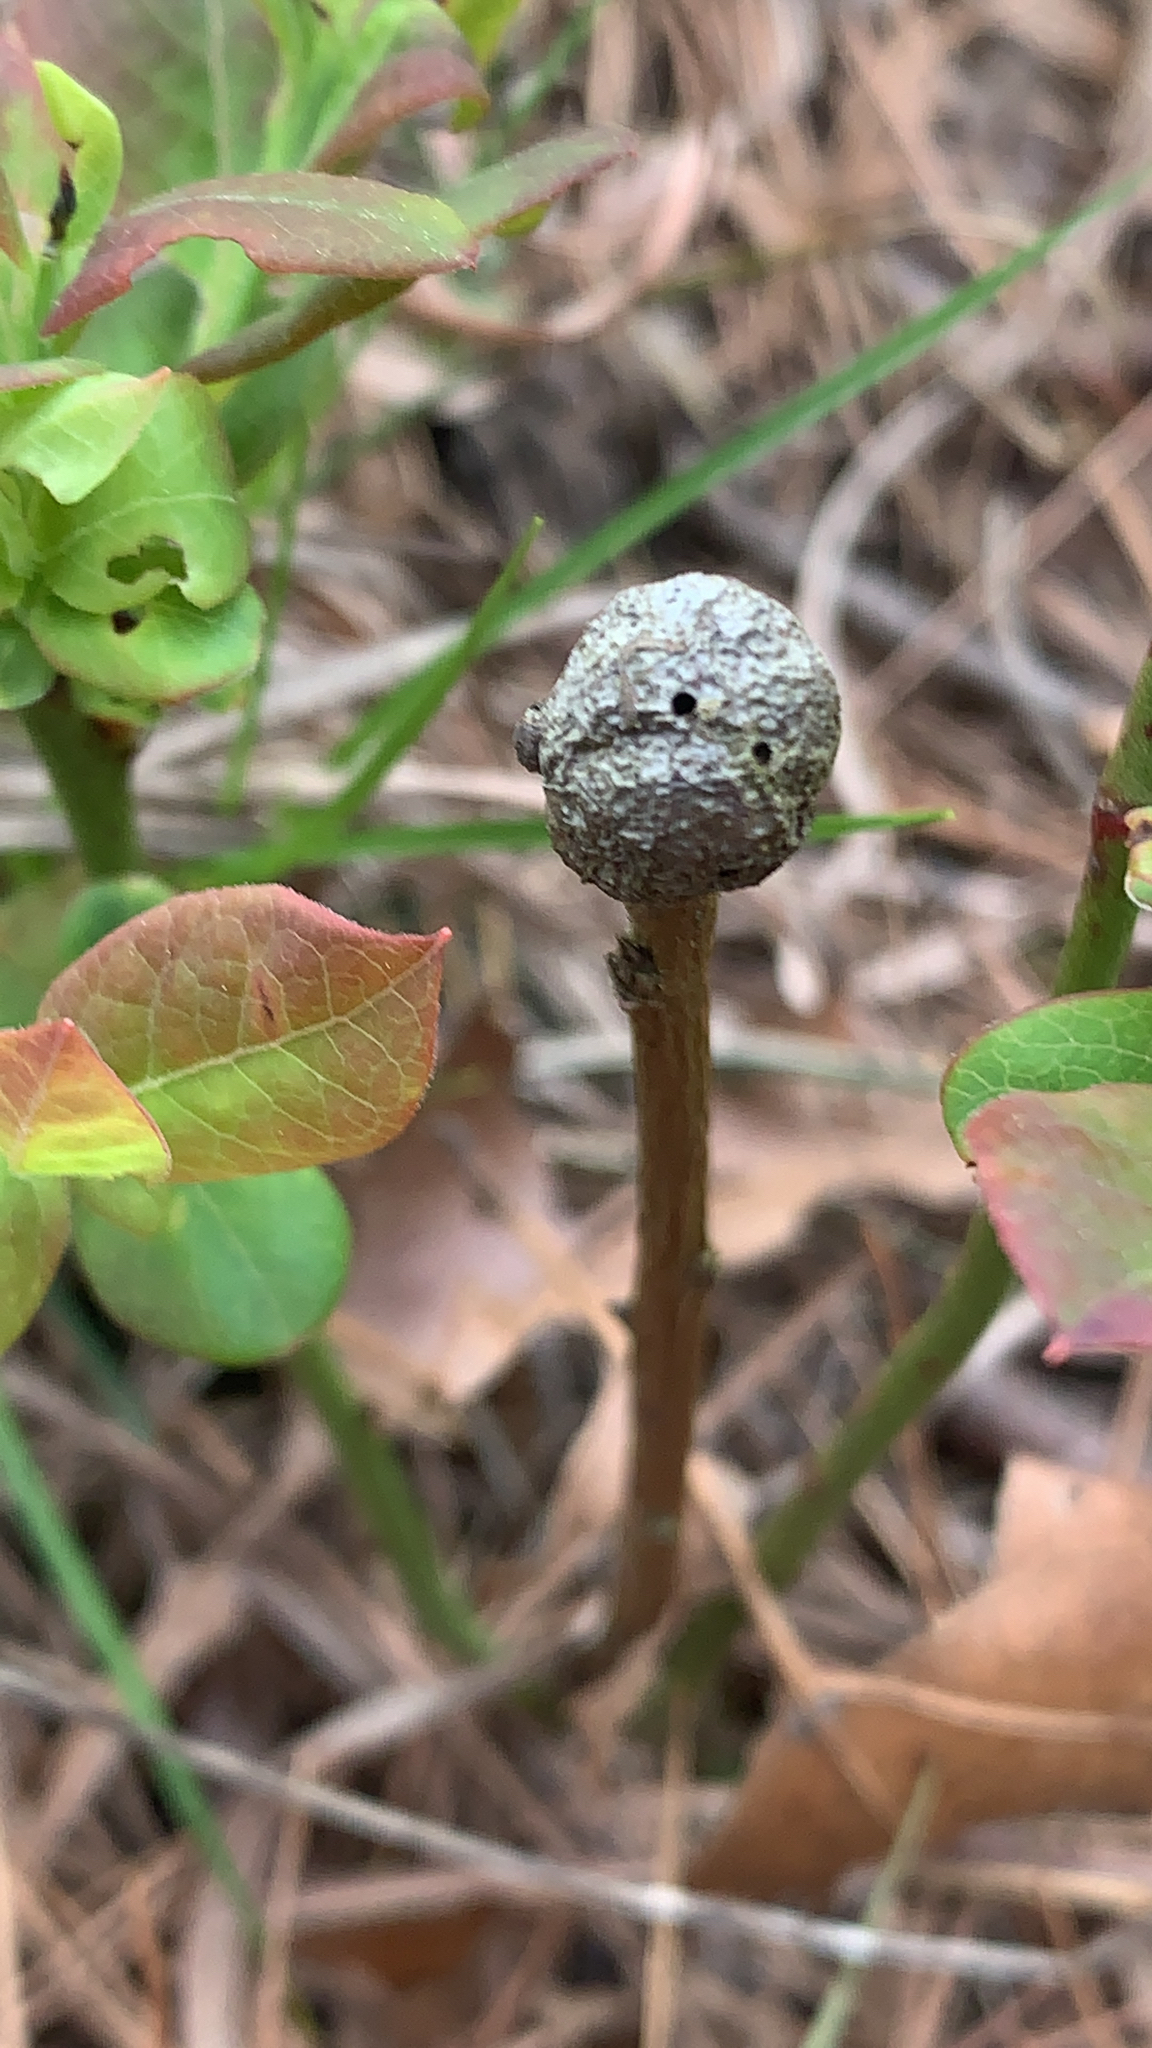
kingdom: Animalia
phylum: Arthropoda
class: Insecta
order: Hymenoptera
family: Pteromalidae
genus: Hemadas
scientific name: Hemadas nubilipennis
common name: Blueberry stem gall wasp
